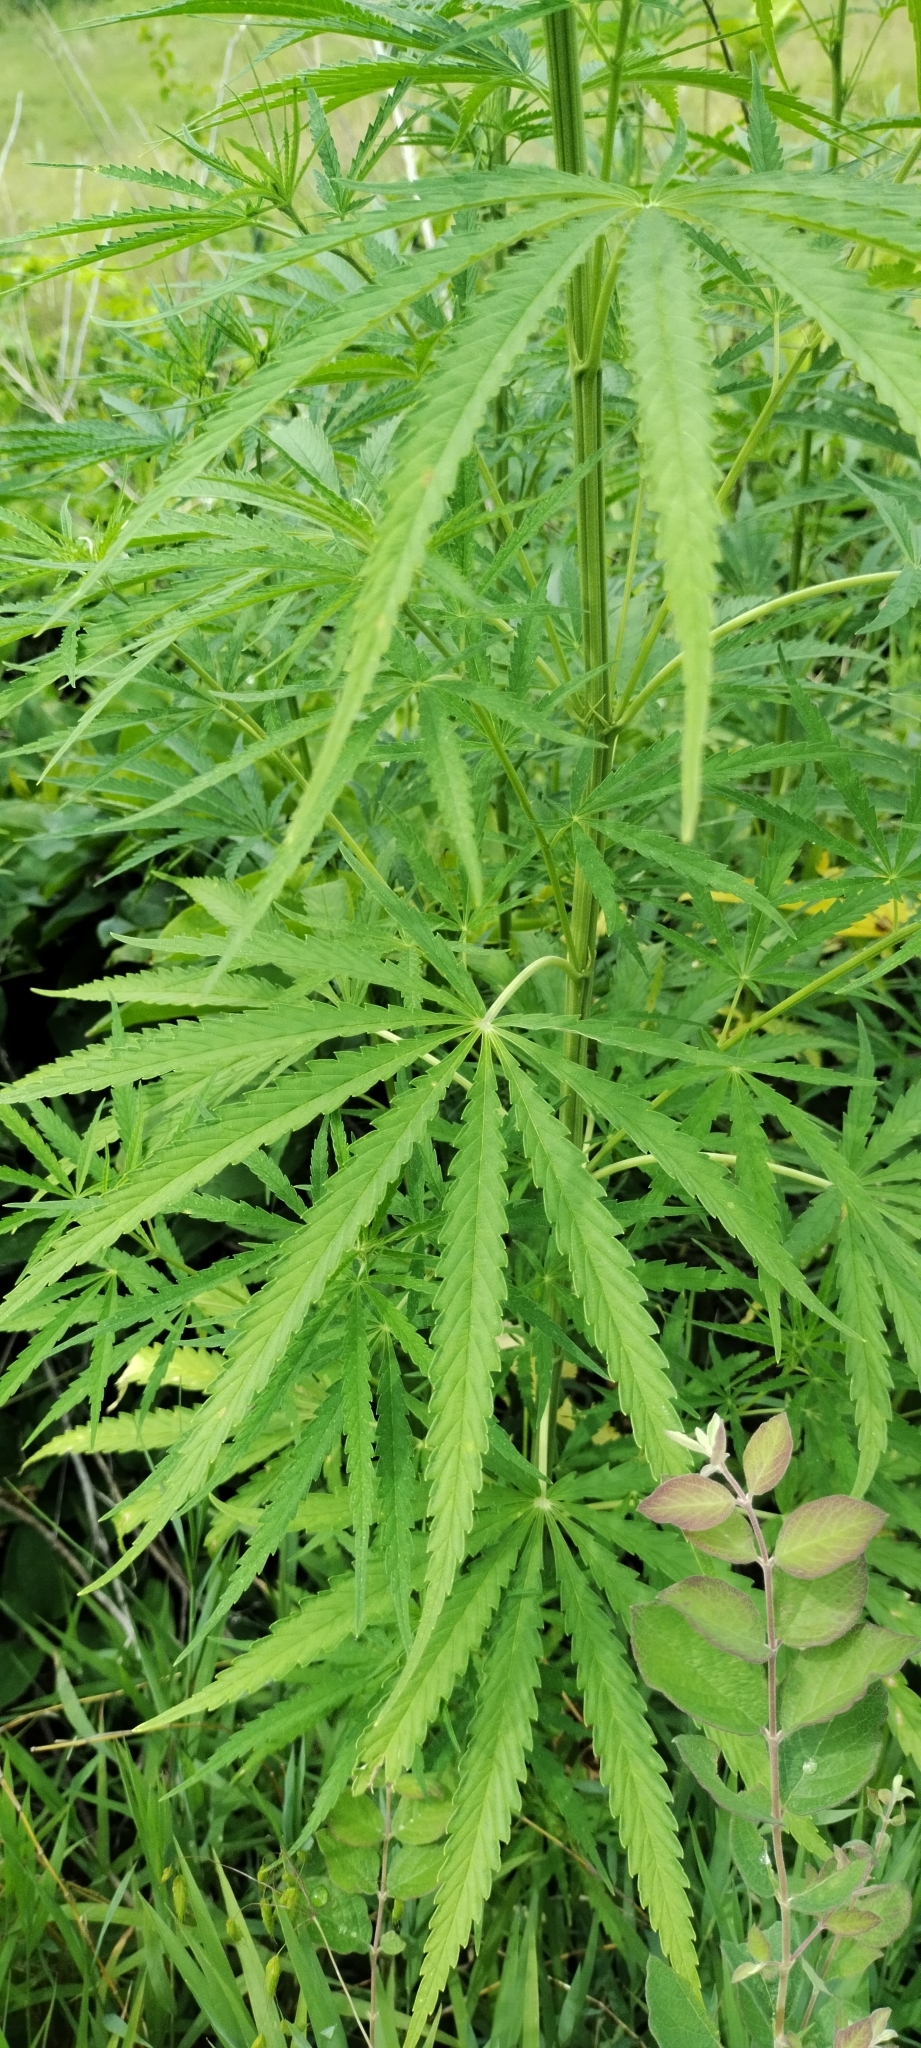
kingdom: Plantae
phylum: Tracheophyta
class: Magnoliopsida
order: Rosales
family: Cannabaceae
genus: Cannabis
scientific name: Cannabis sativa
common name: Hemp
